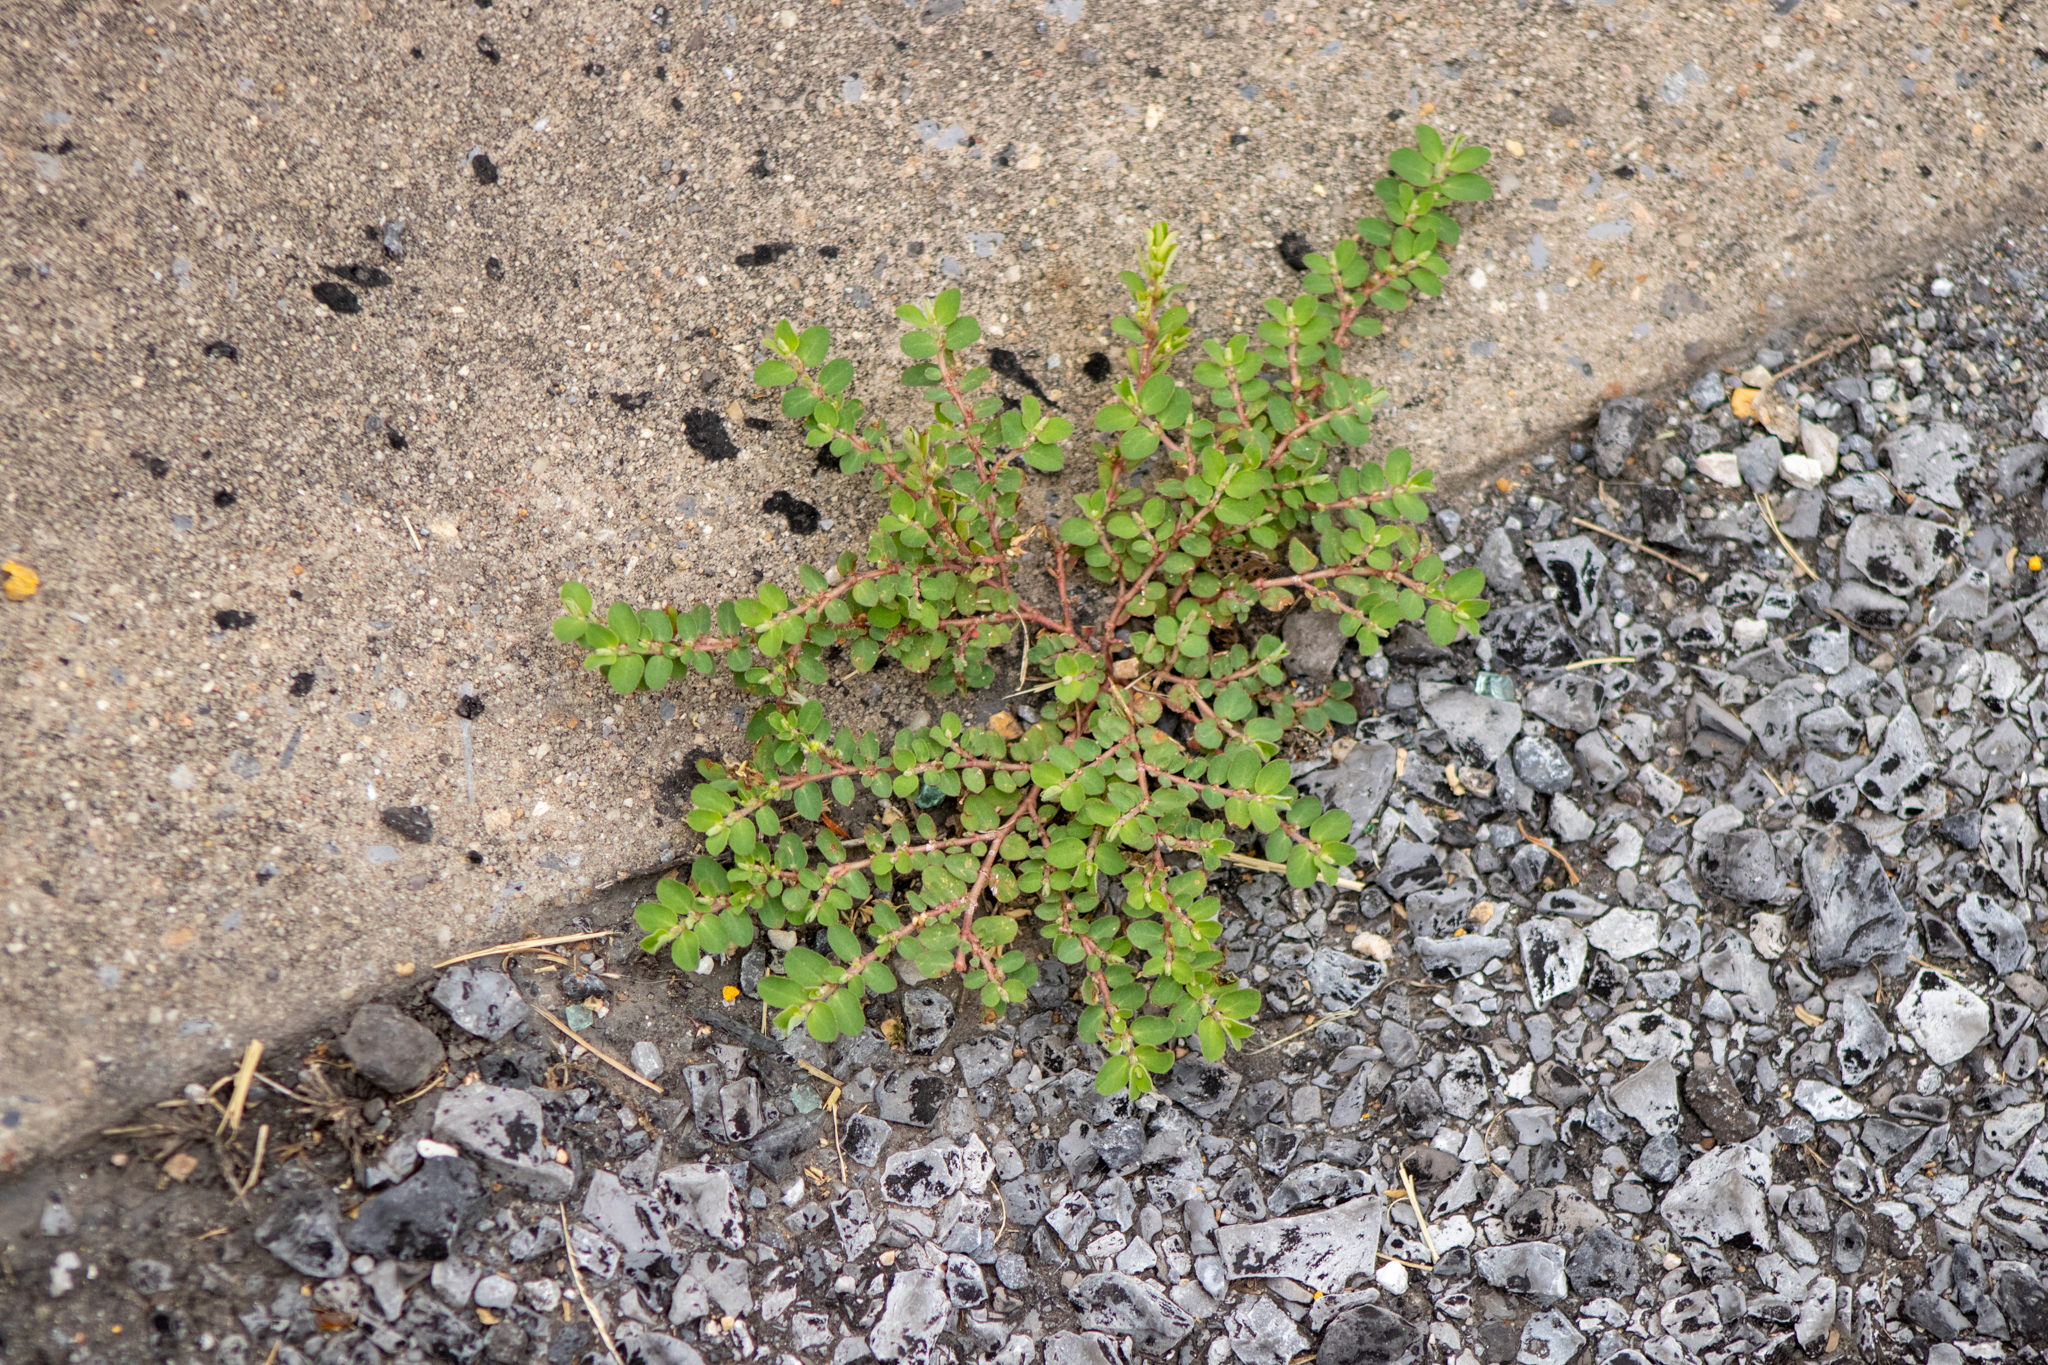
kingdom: Plantae
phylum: Tracheophyta
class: Magnoliopsida
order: Malpighiales
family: Euphorbiaceae
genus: Euphorbia
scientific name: Euphorbia prostrata
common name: Prostrate sandmat
